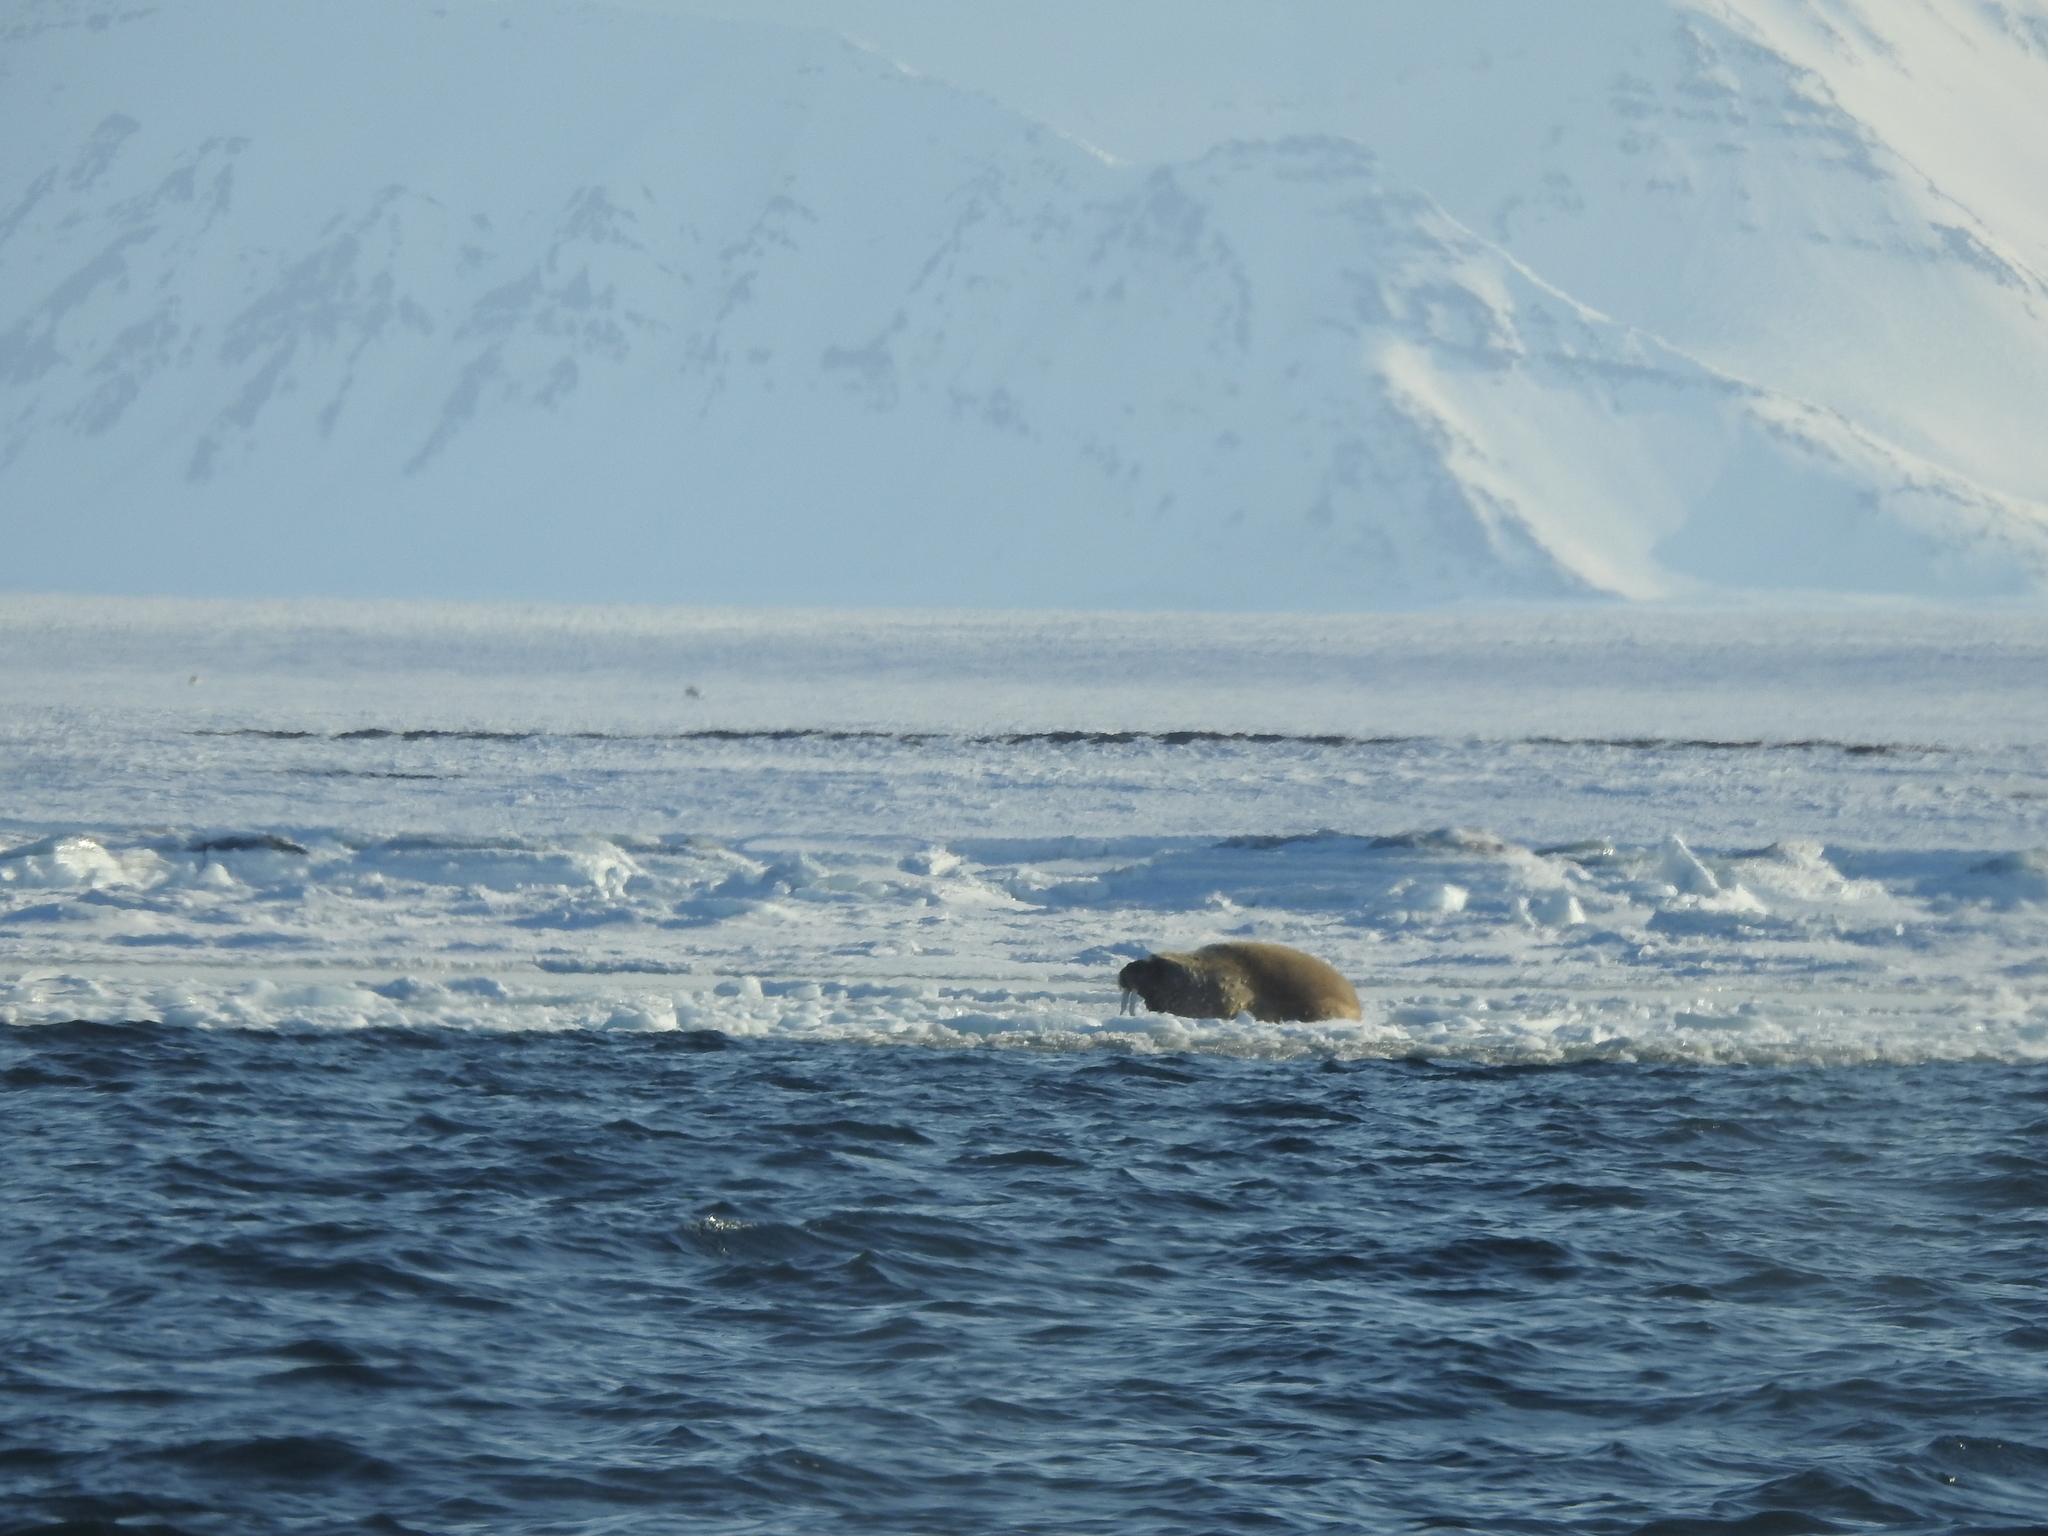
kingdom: Animalia
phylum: Chordata
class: Mammalia
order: Carnivora
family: Odobenidae
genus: Odobenus
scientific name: Odobenus rosmarus
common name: Walrus
